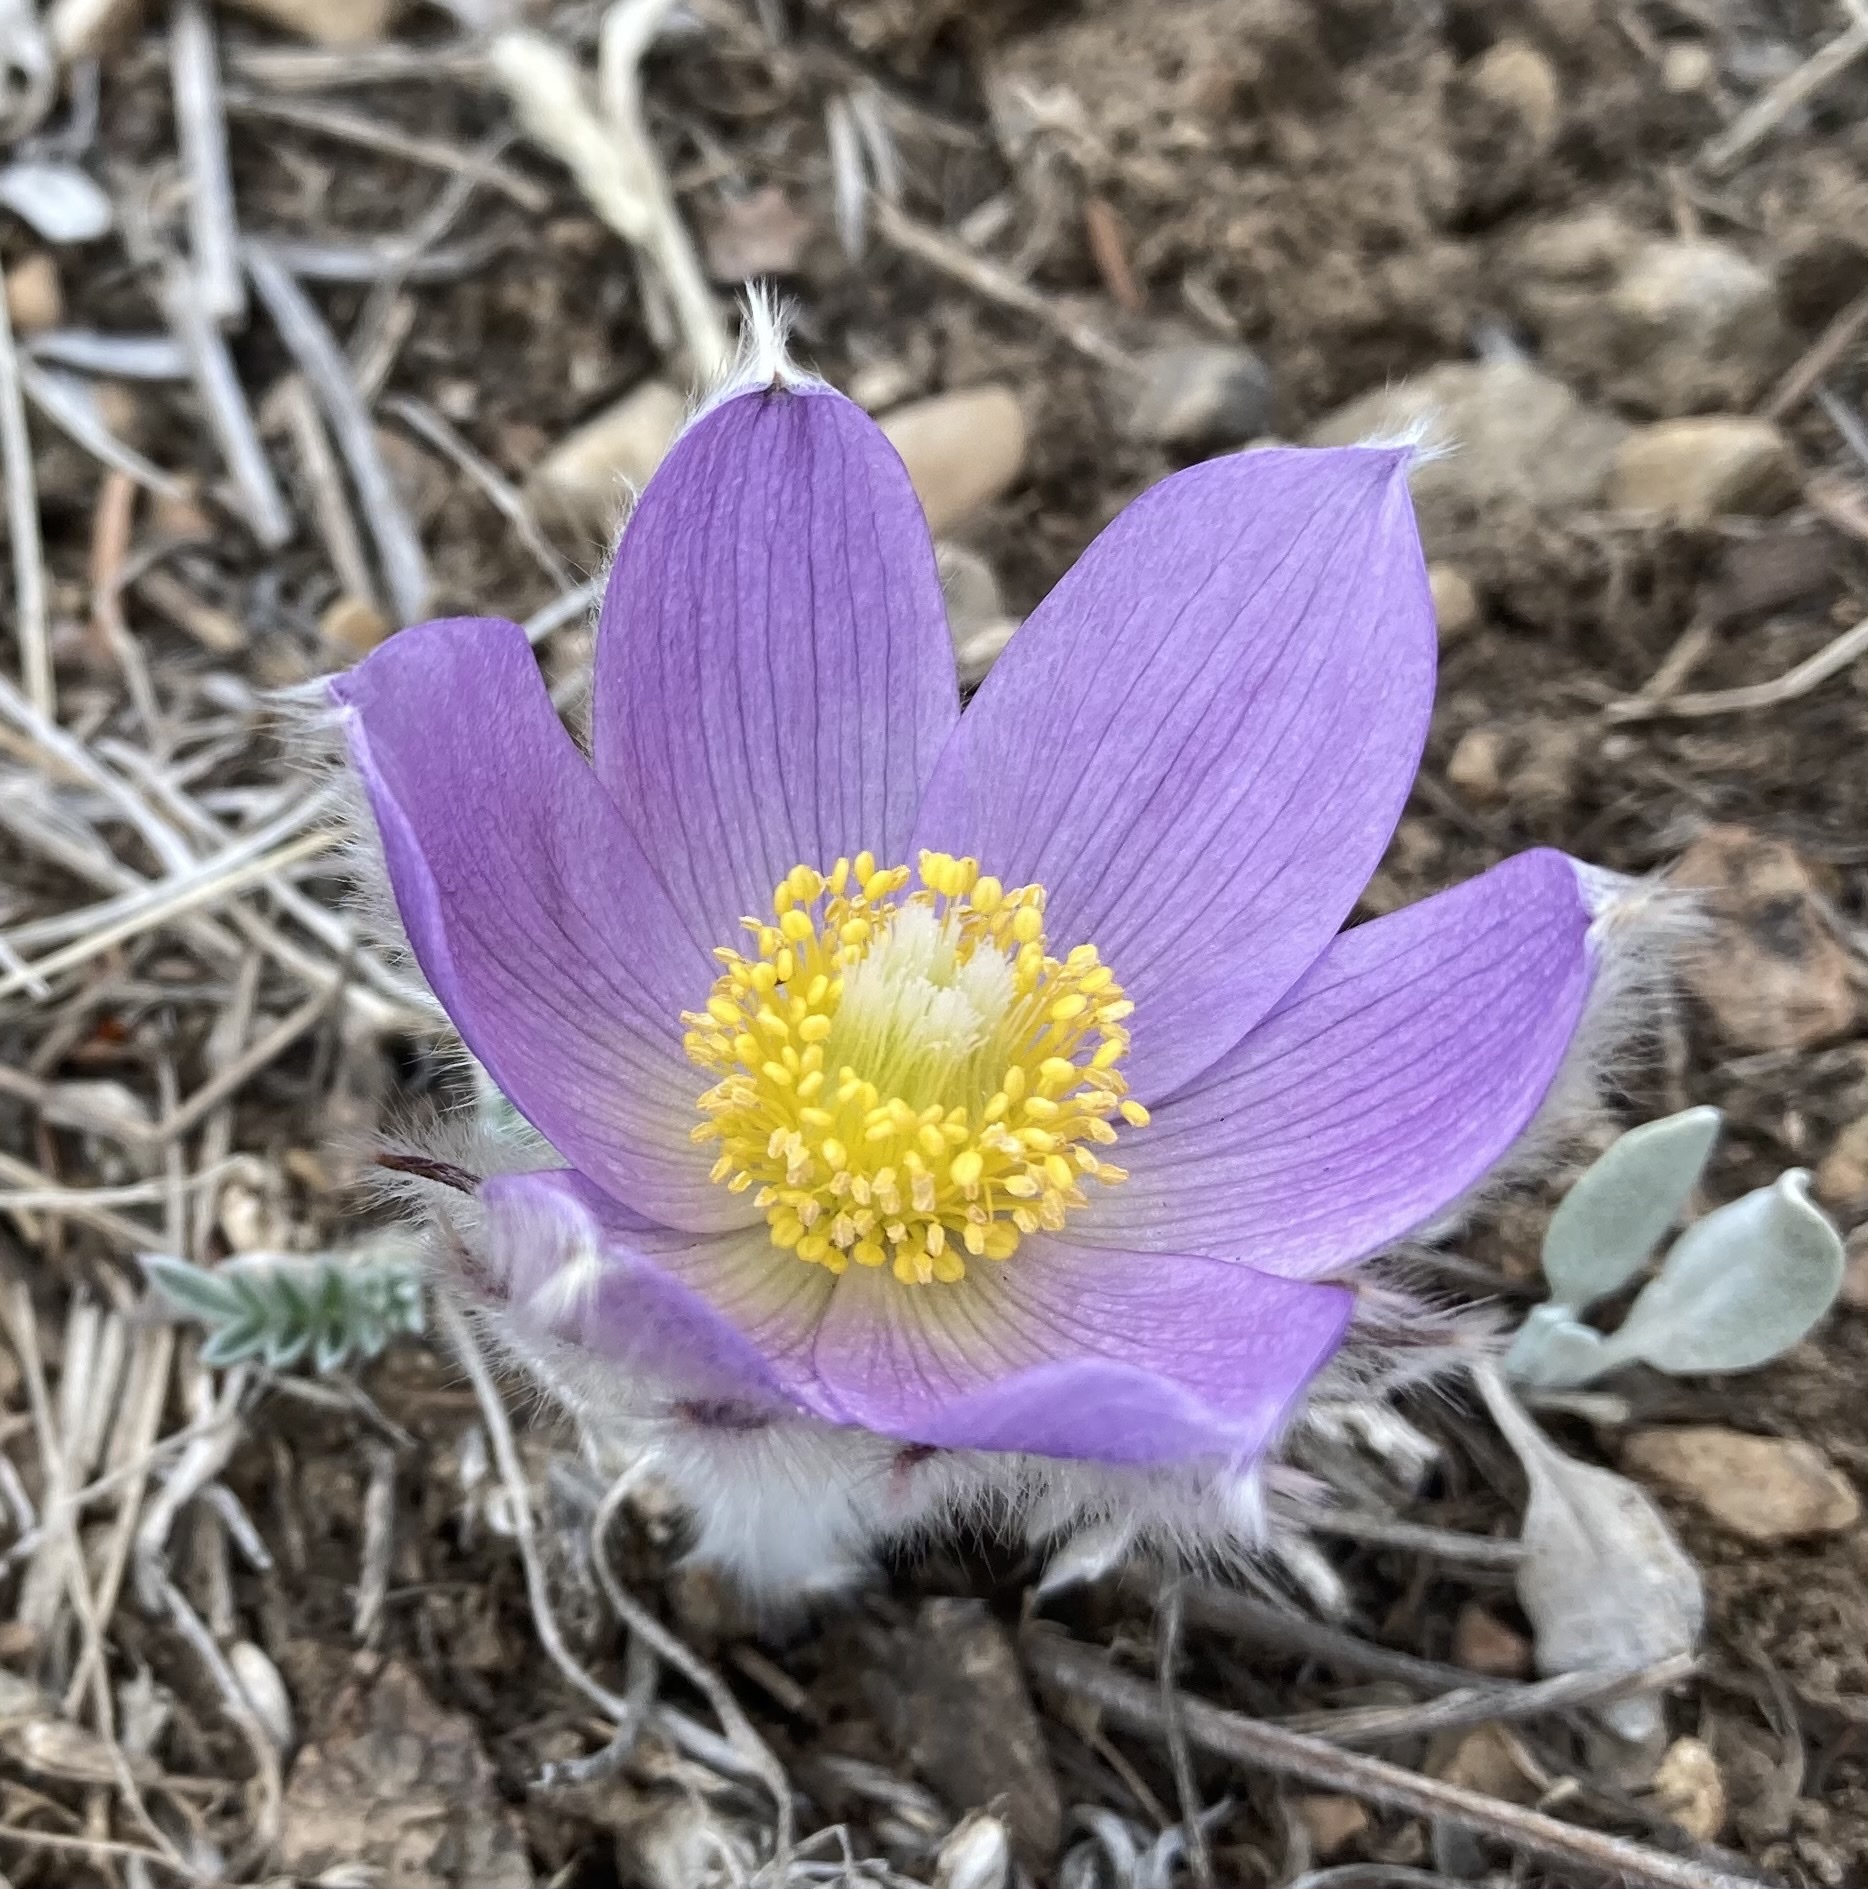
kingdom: Plantae
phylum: Tracheophyta
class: Magnoliopsida
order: Ranunculales
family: Ranunculaceae
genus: Pulsatilla
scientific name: Pulsatilla nuttalliana
